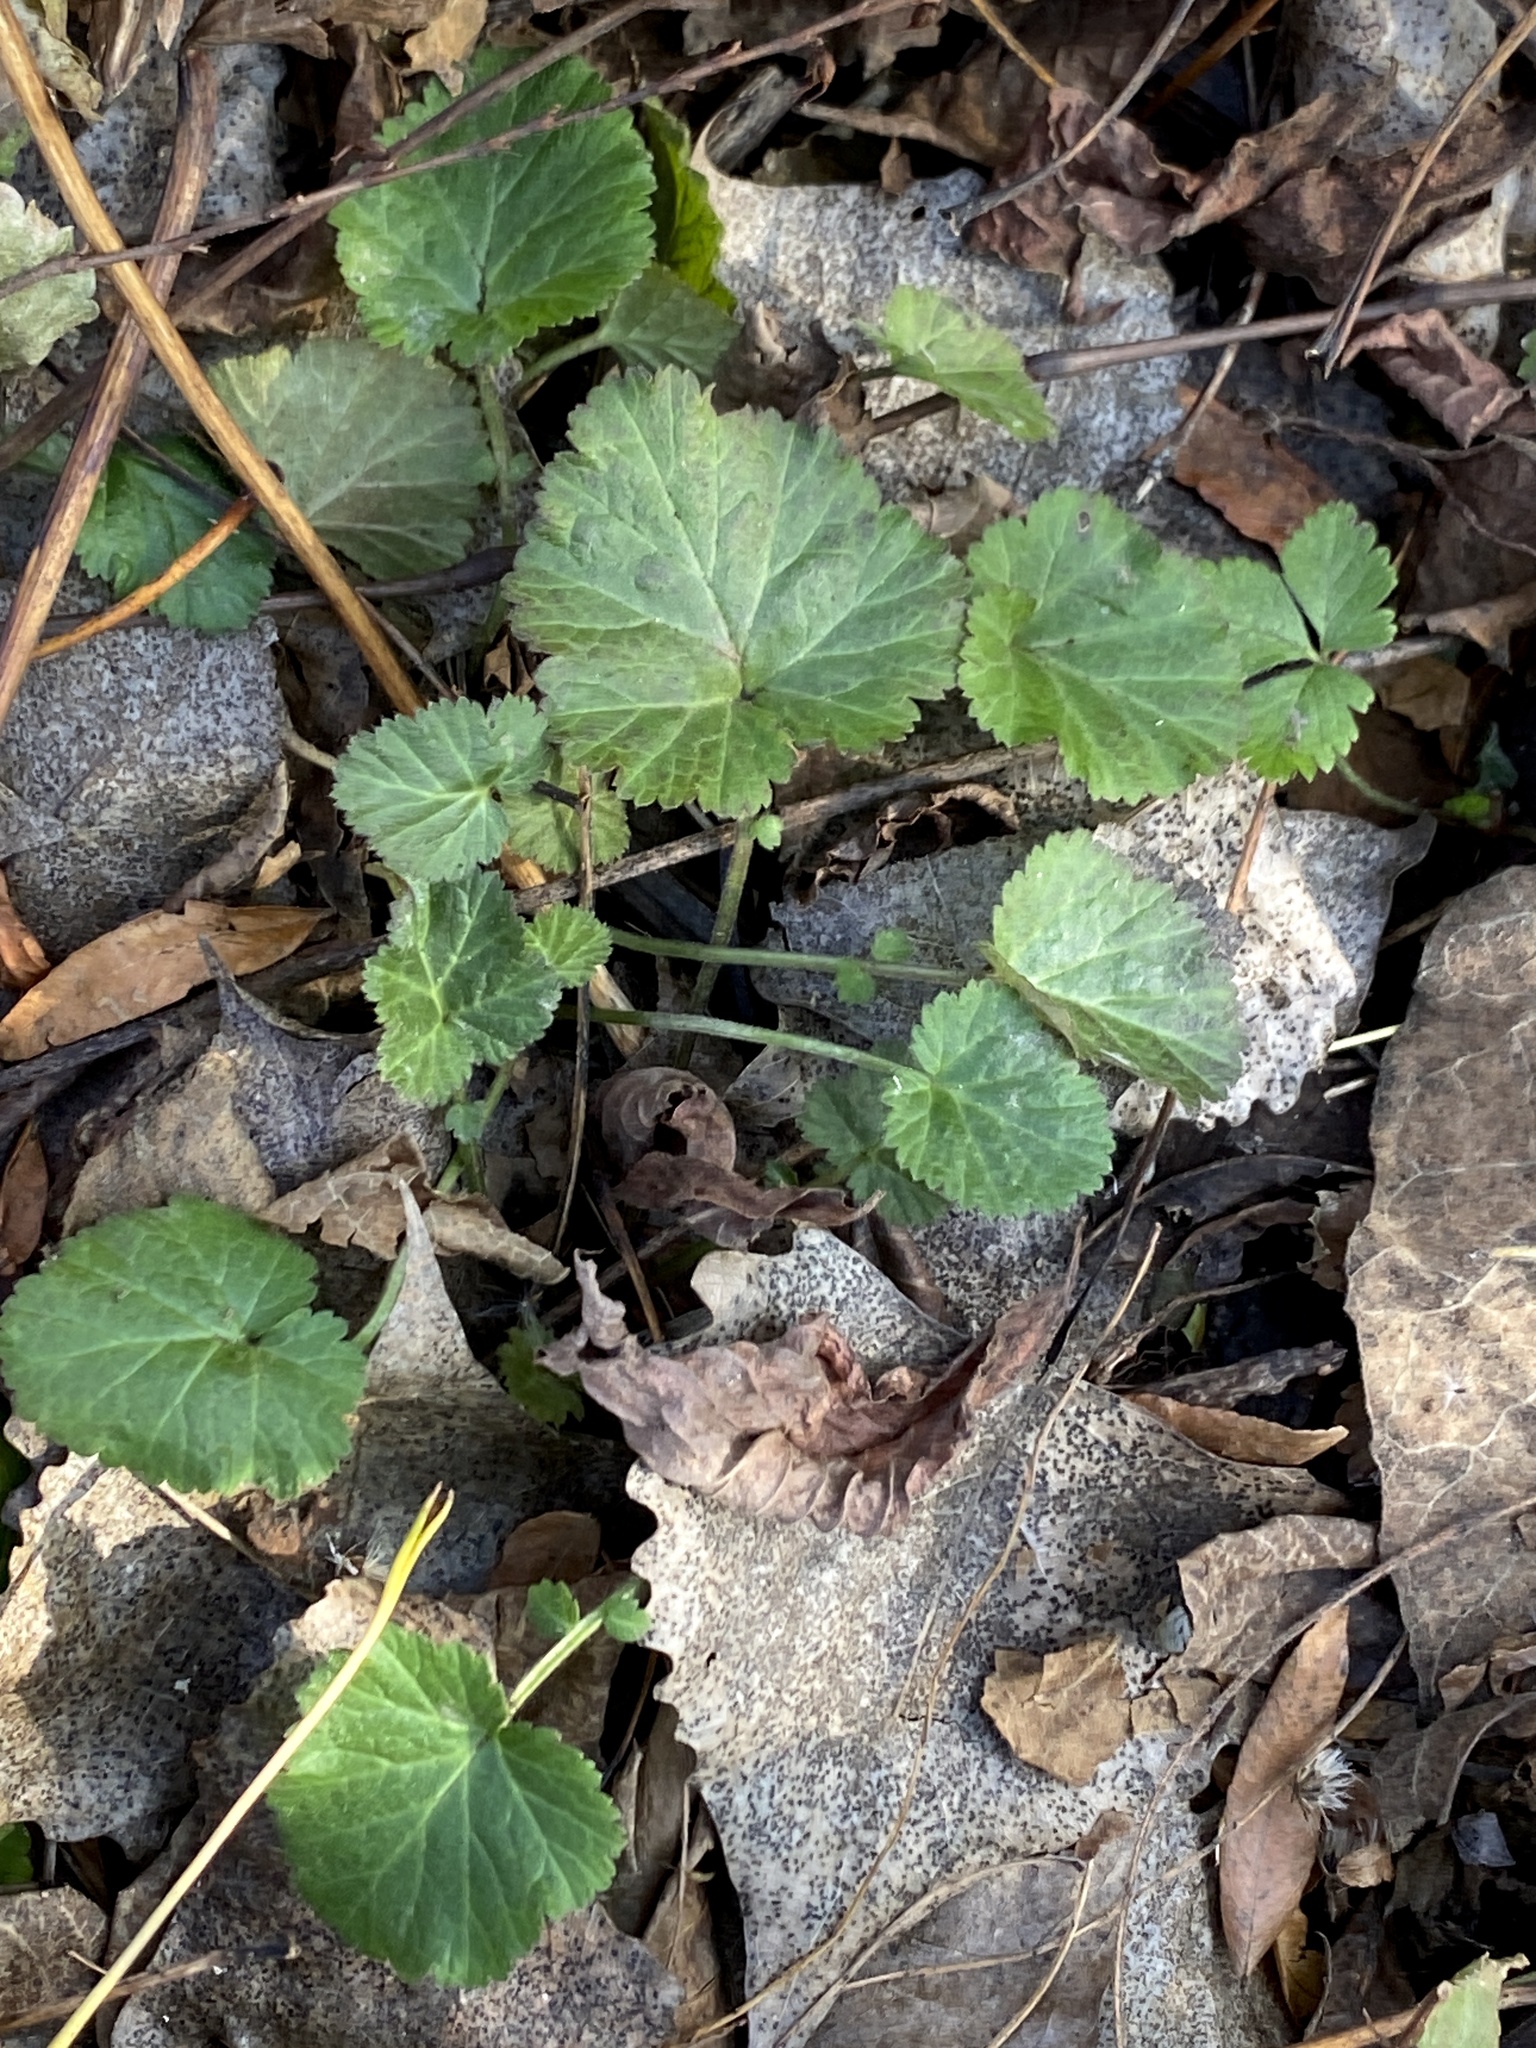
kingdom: Plantae
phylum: Tracheophyta
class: Magnoliopsida
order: Rosales
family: Rosaceae
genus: Geum
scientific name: Geum canadense
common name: White avens
